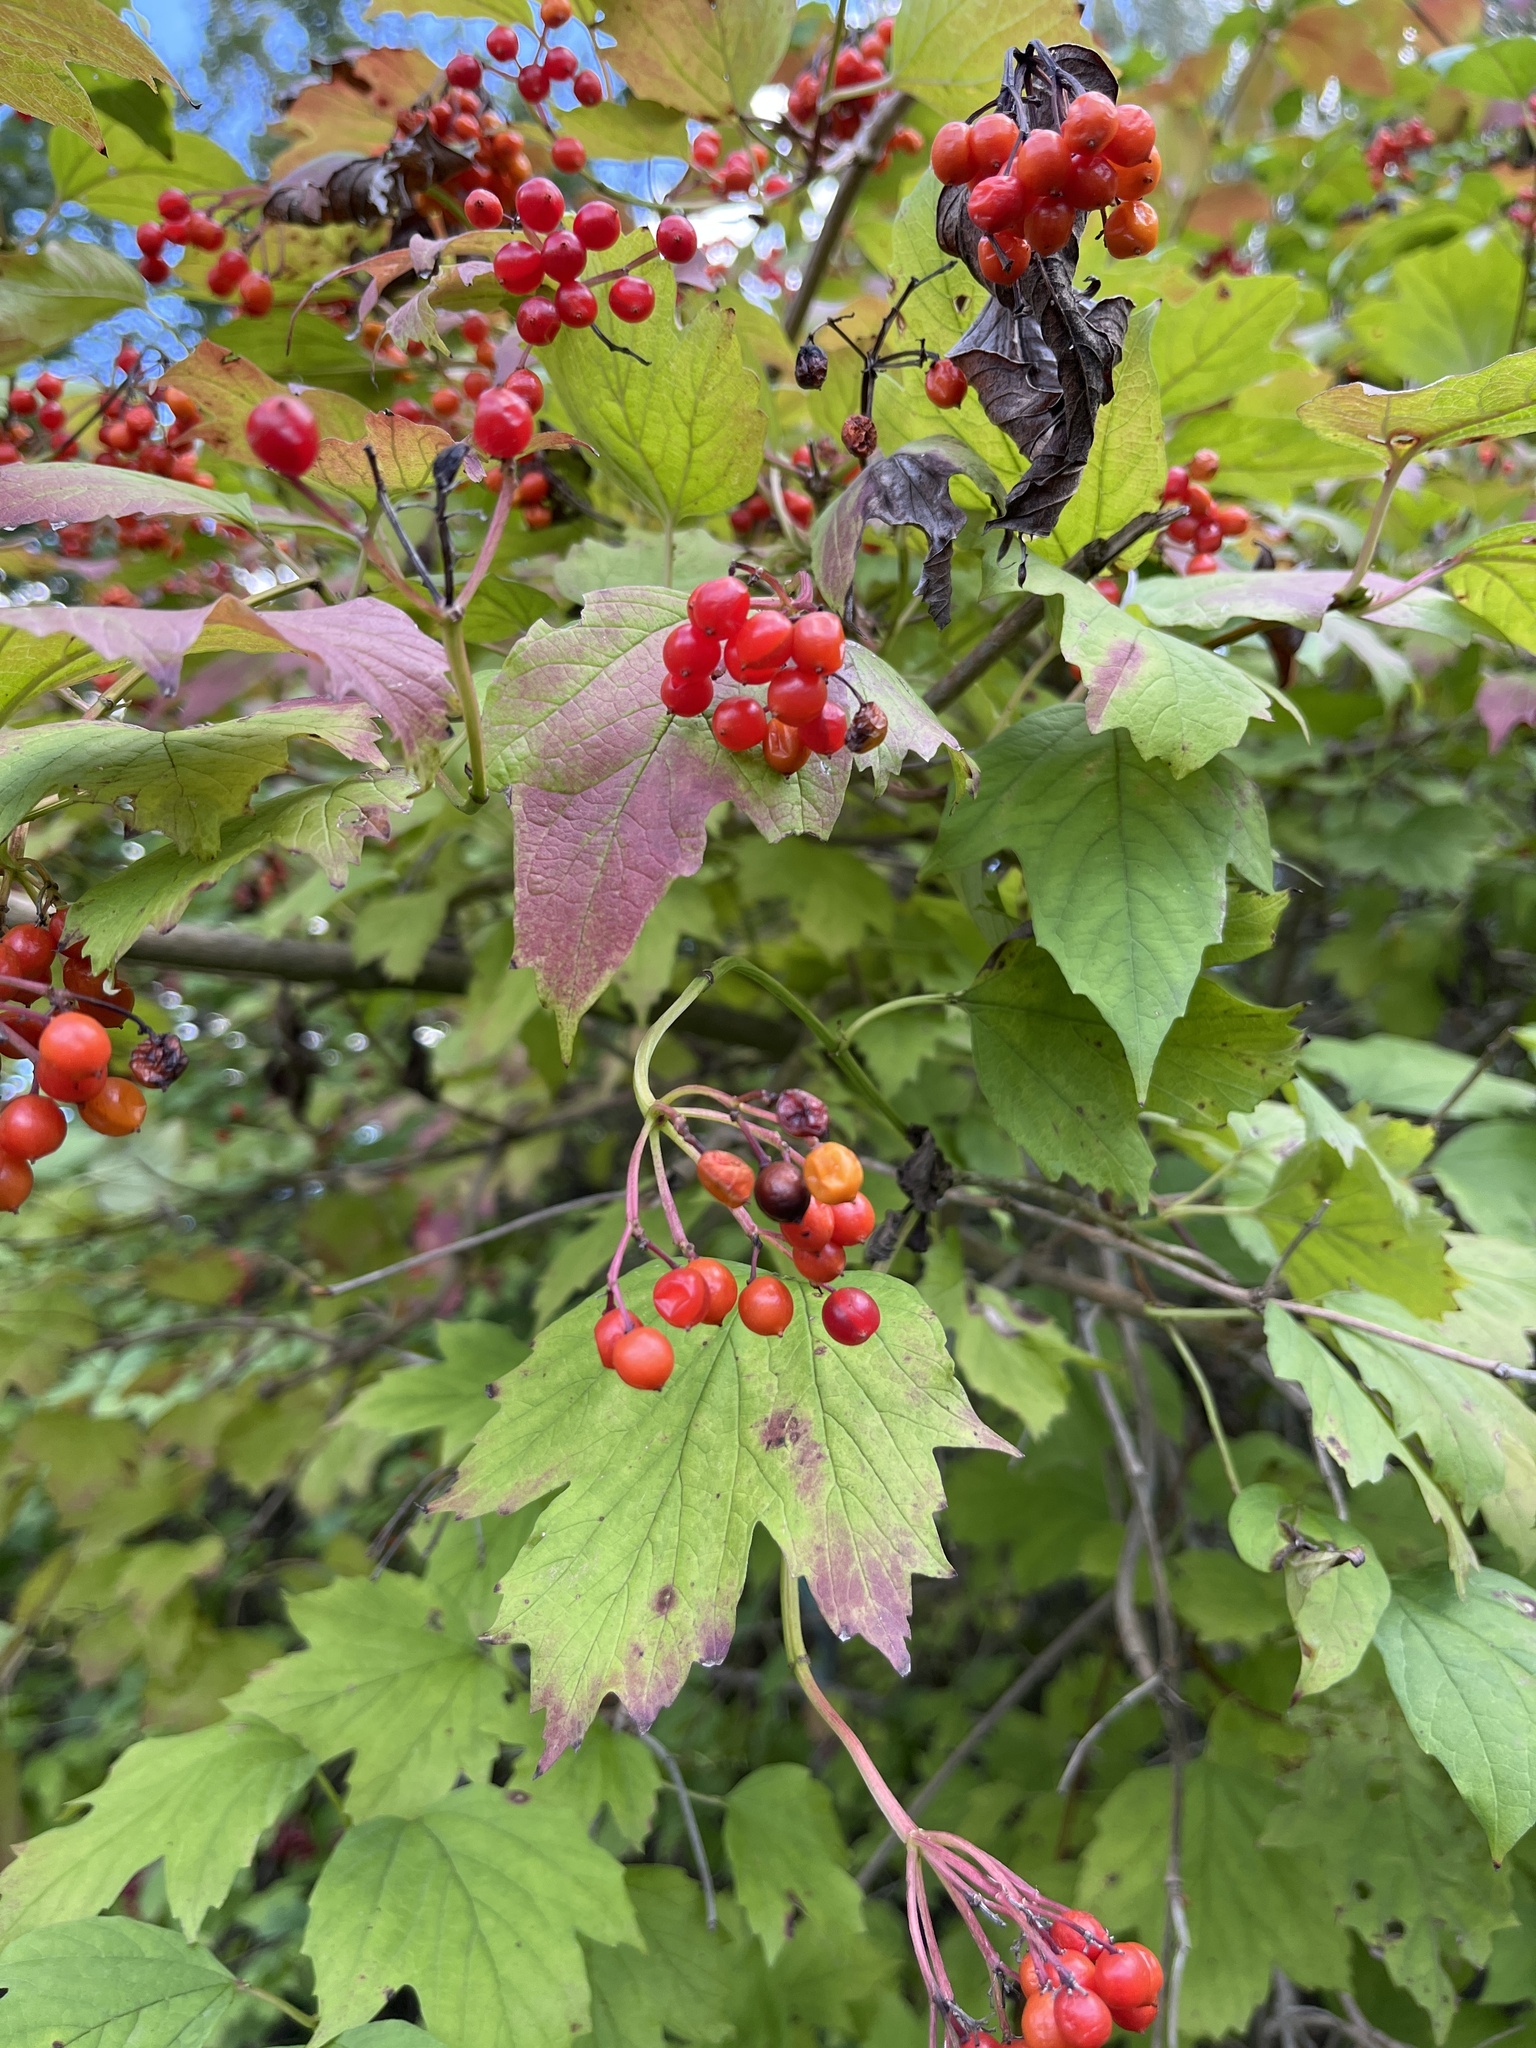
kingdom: Plantae
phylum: Tracheophyta
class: Magnoliopsida
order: Dipsacales
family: Viburnaceae
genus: Viburnum
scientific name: Viburnum opulus
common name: Guelder-rose
